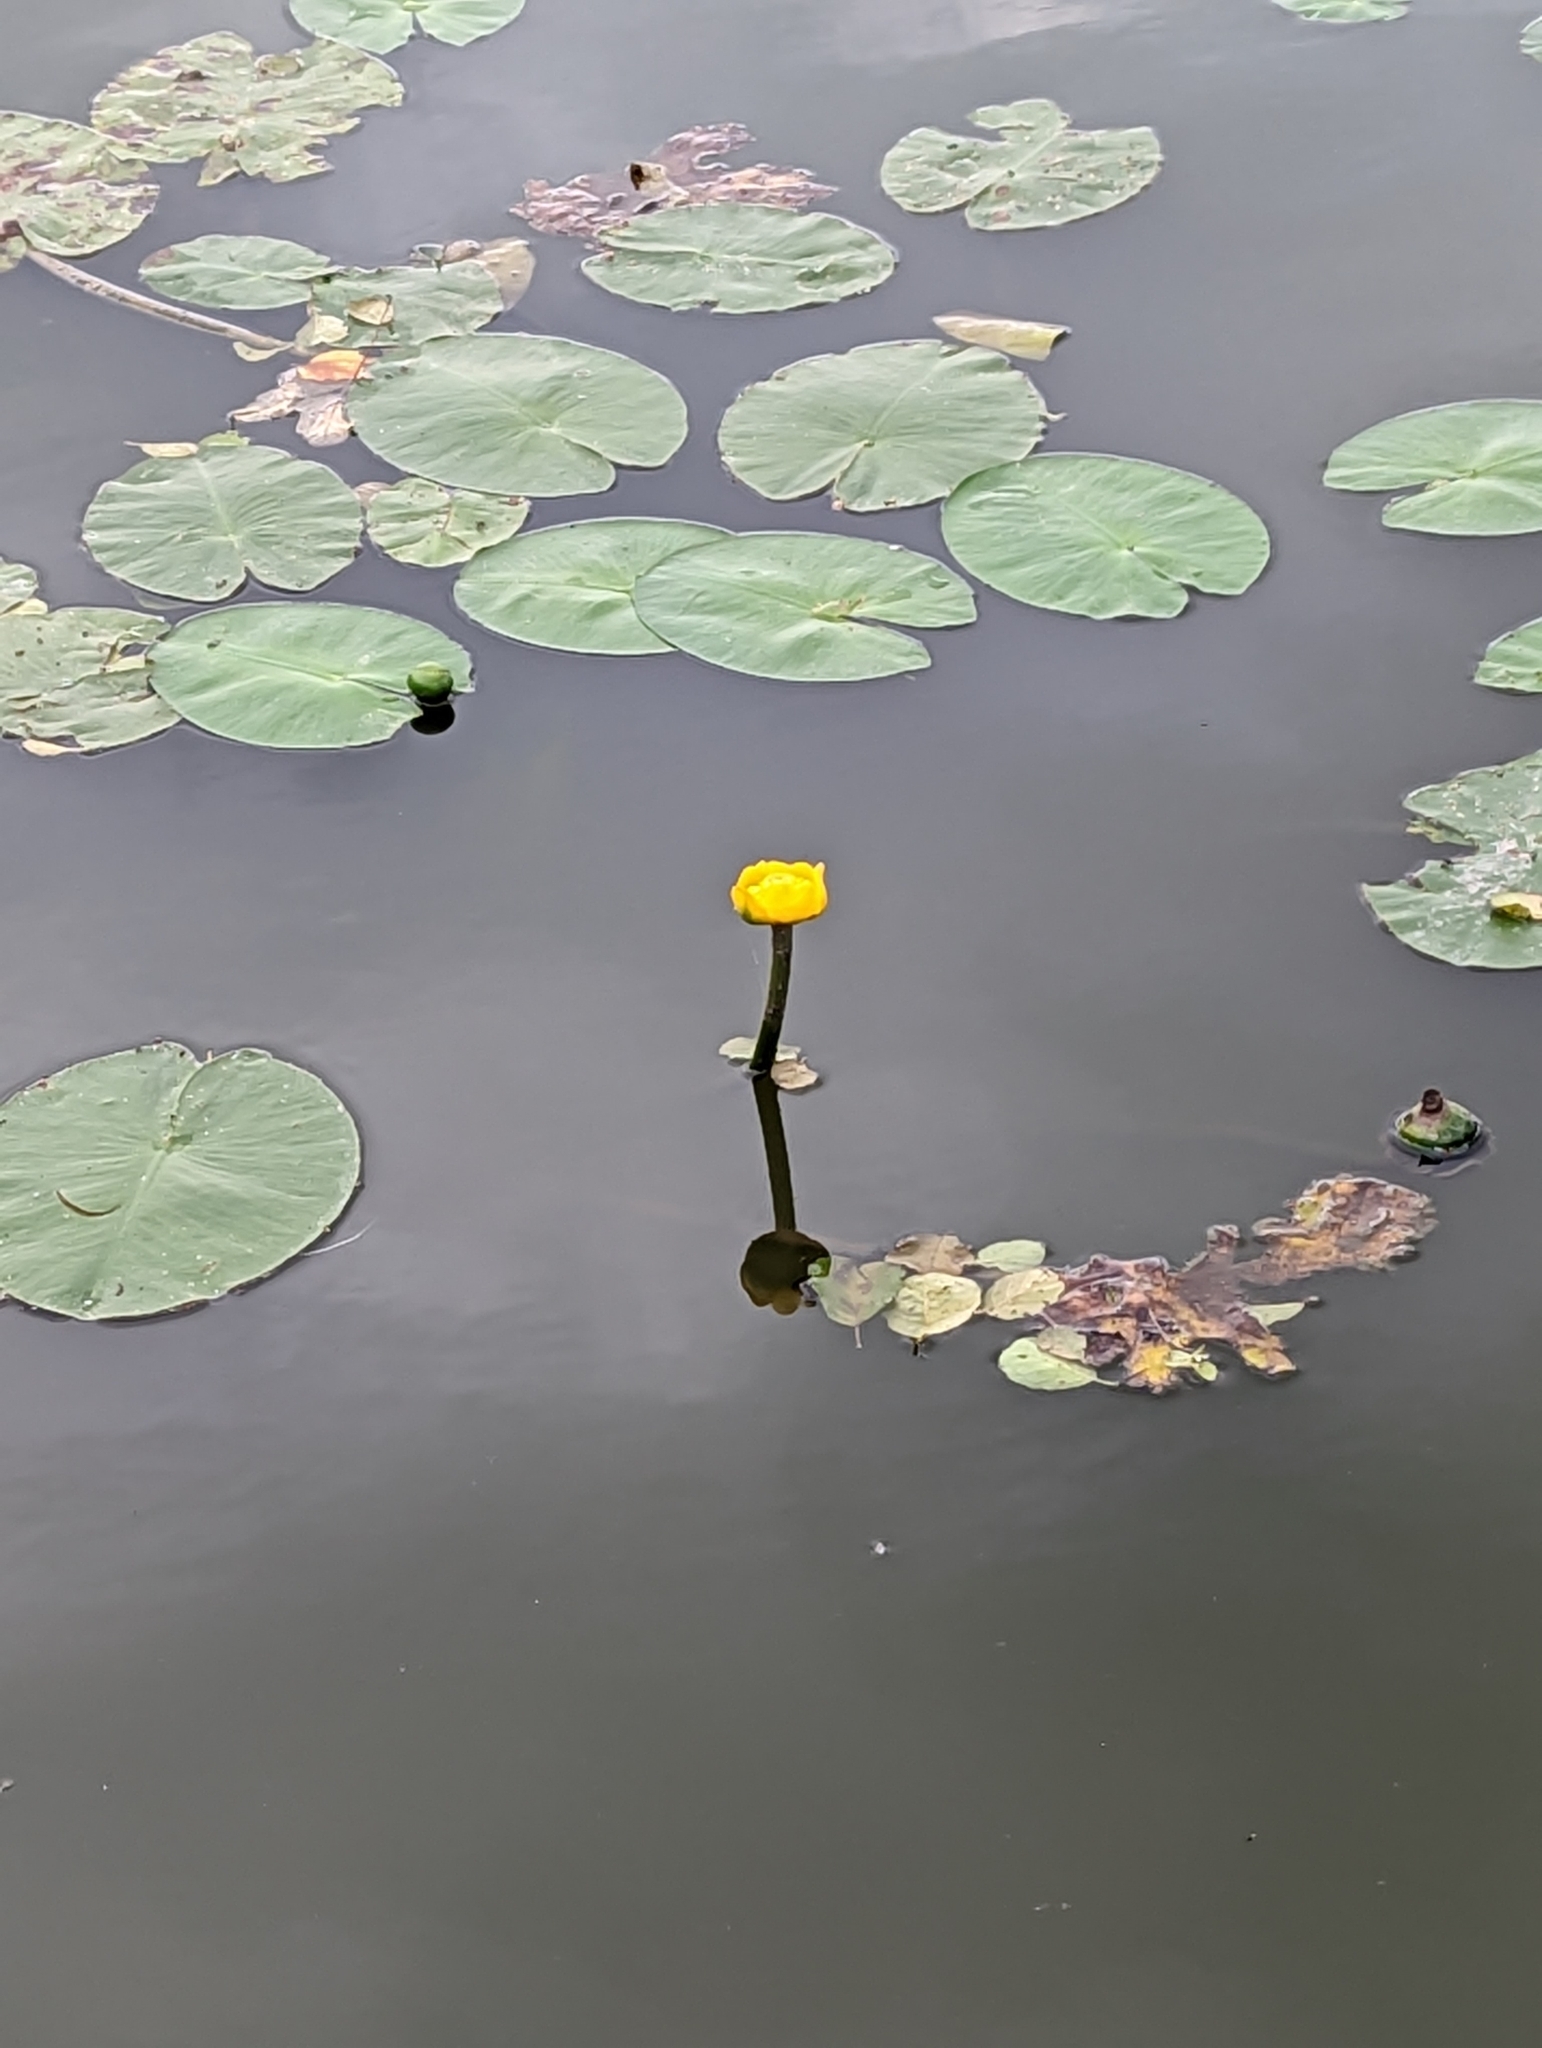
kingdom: Plantae
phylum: Tracheophyta
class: Magnoliopsida
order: Nymphaeales
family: Nymphaeaceae
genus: Nuphar
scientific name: Nuphar lutea
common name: Yellow water-lily
